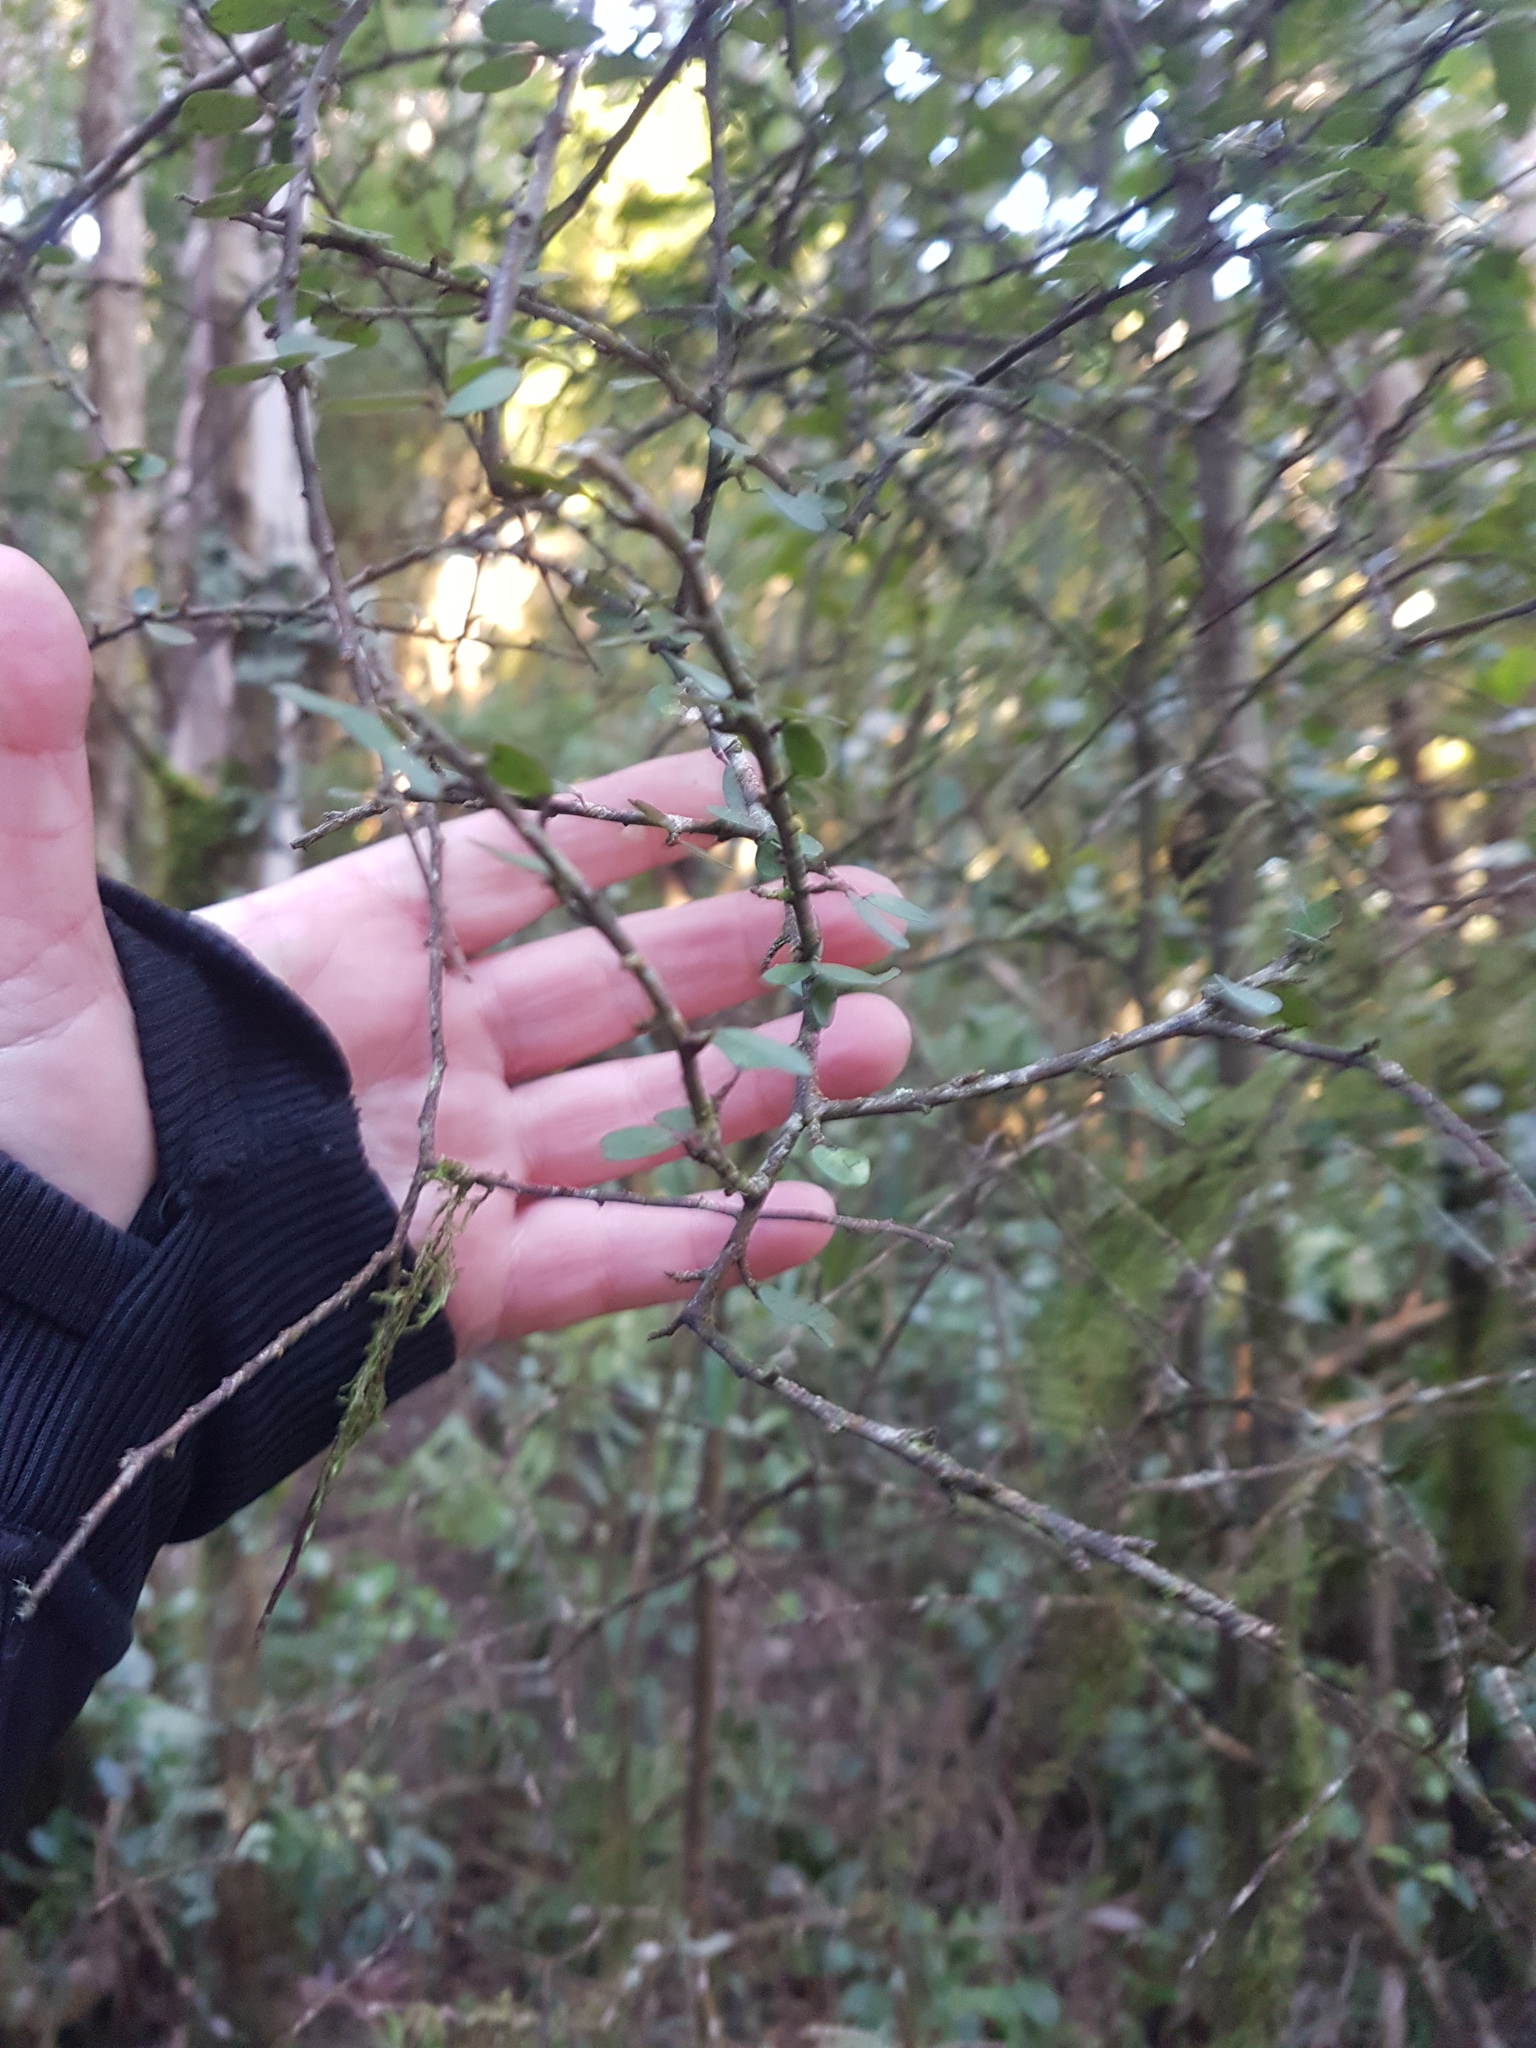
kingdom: Plantae
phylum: Tracheophyta
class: Magnoliopsida
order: Ericales
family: Primulaceae
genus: Myrsine
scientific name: Myrsine divaricata
